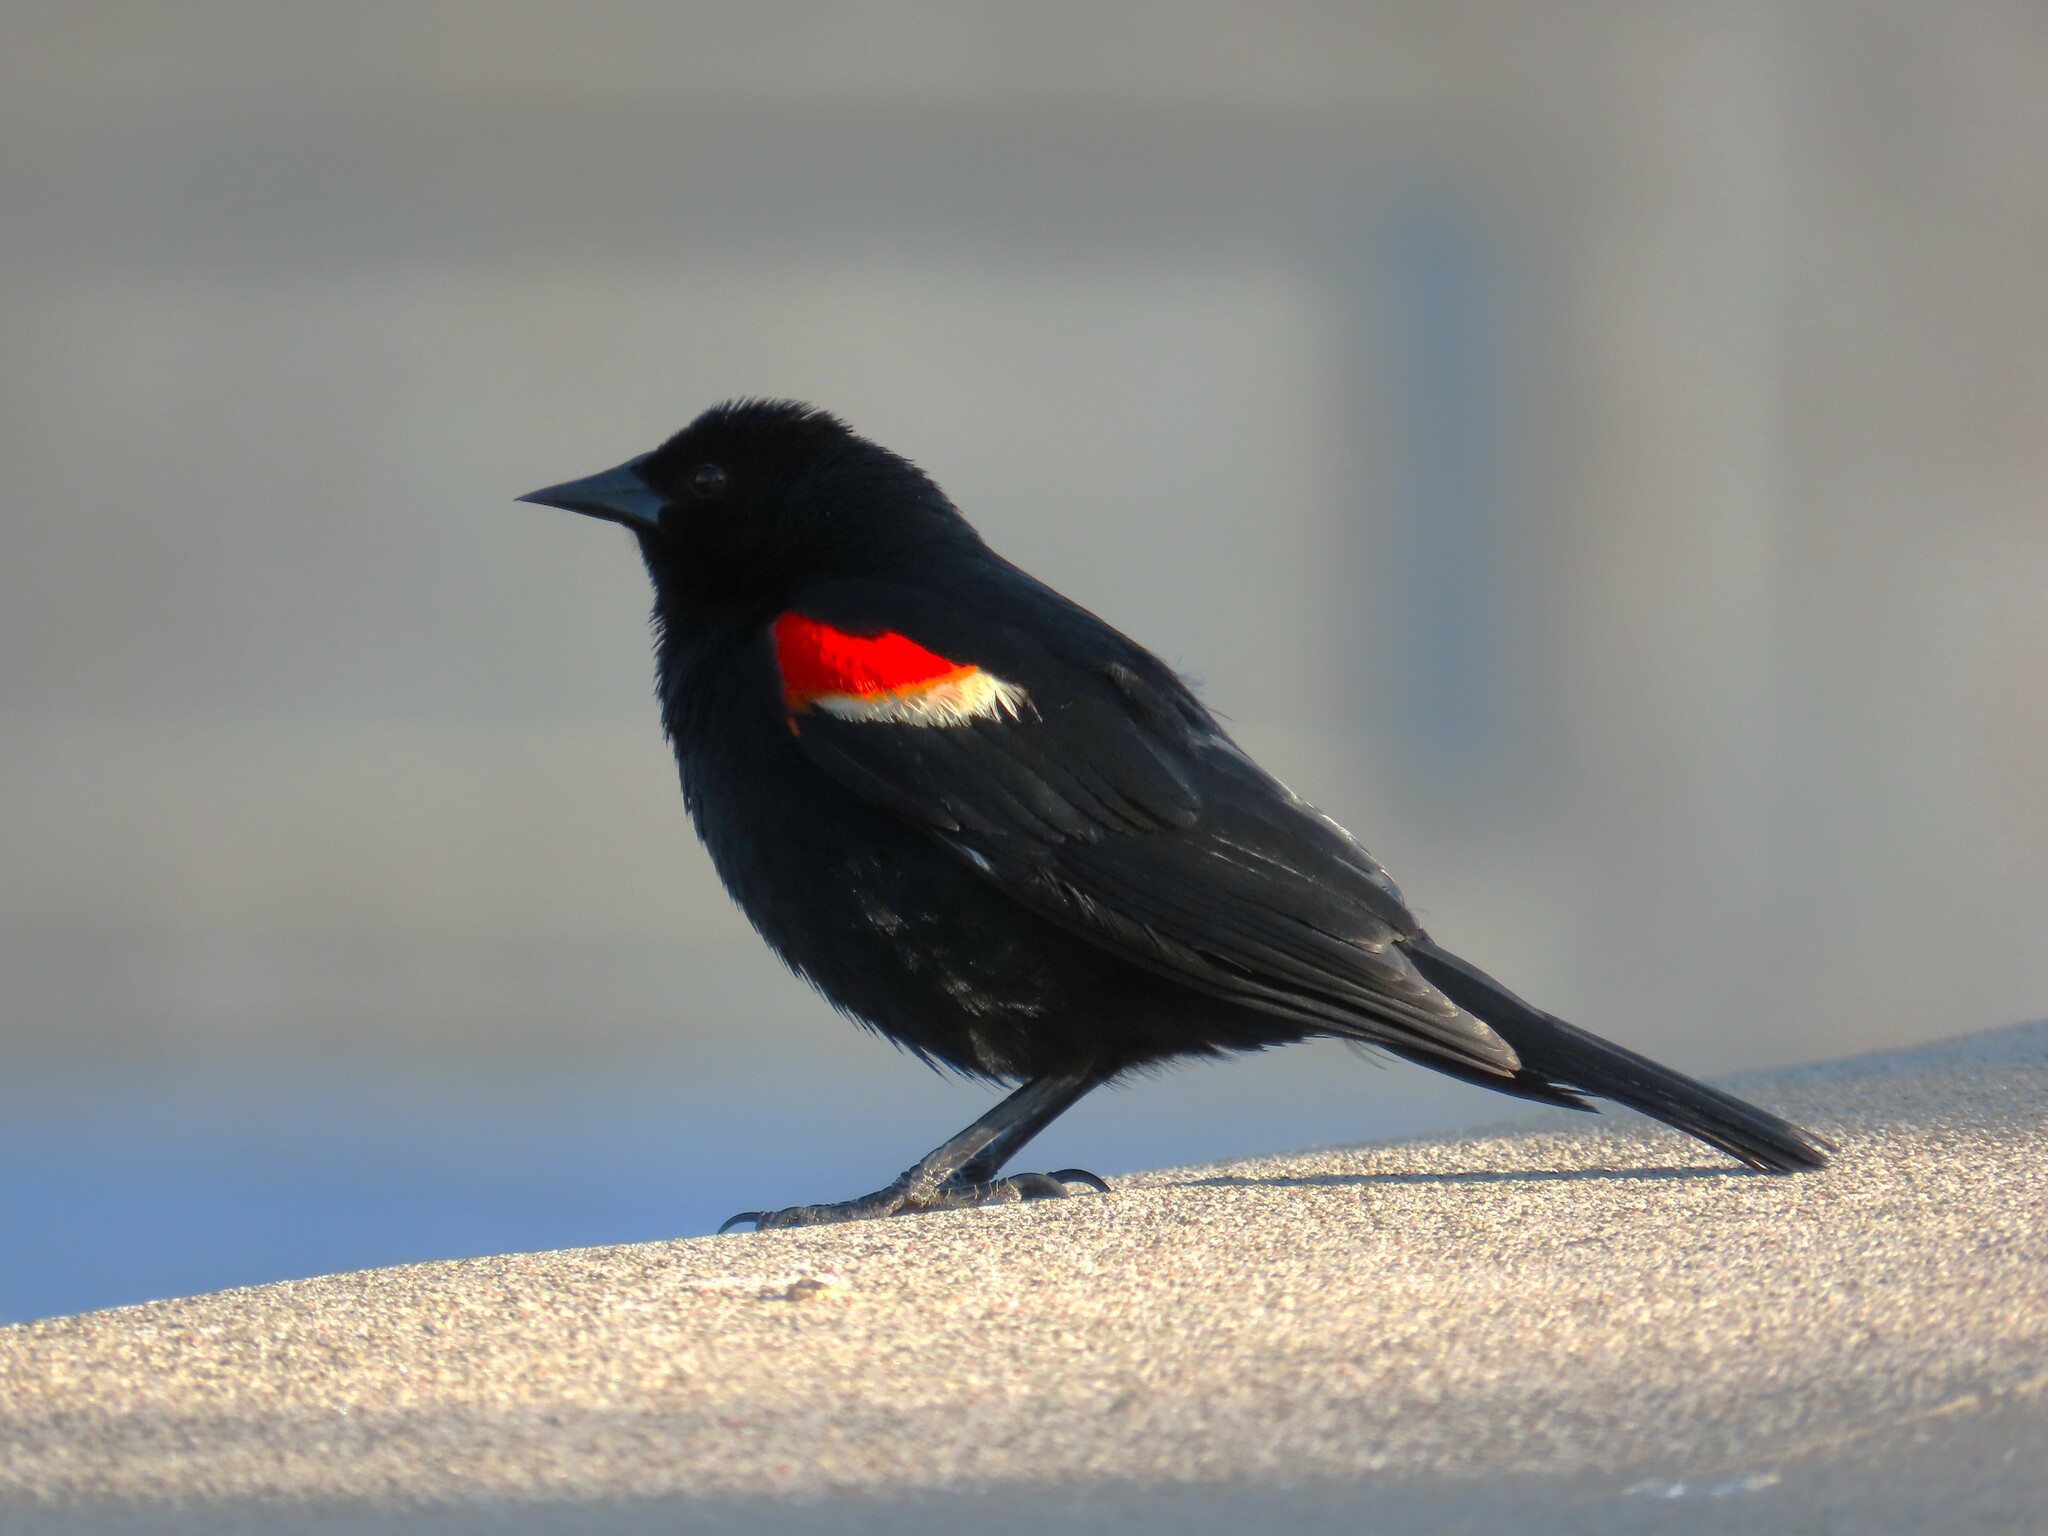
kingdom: Animalia
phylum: Chordata
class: Aves
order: Passeriformes
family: Icteridae
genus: Agelaius
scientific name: Agelaius phoeniceus
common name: Red-winged blackbird
